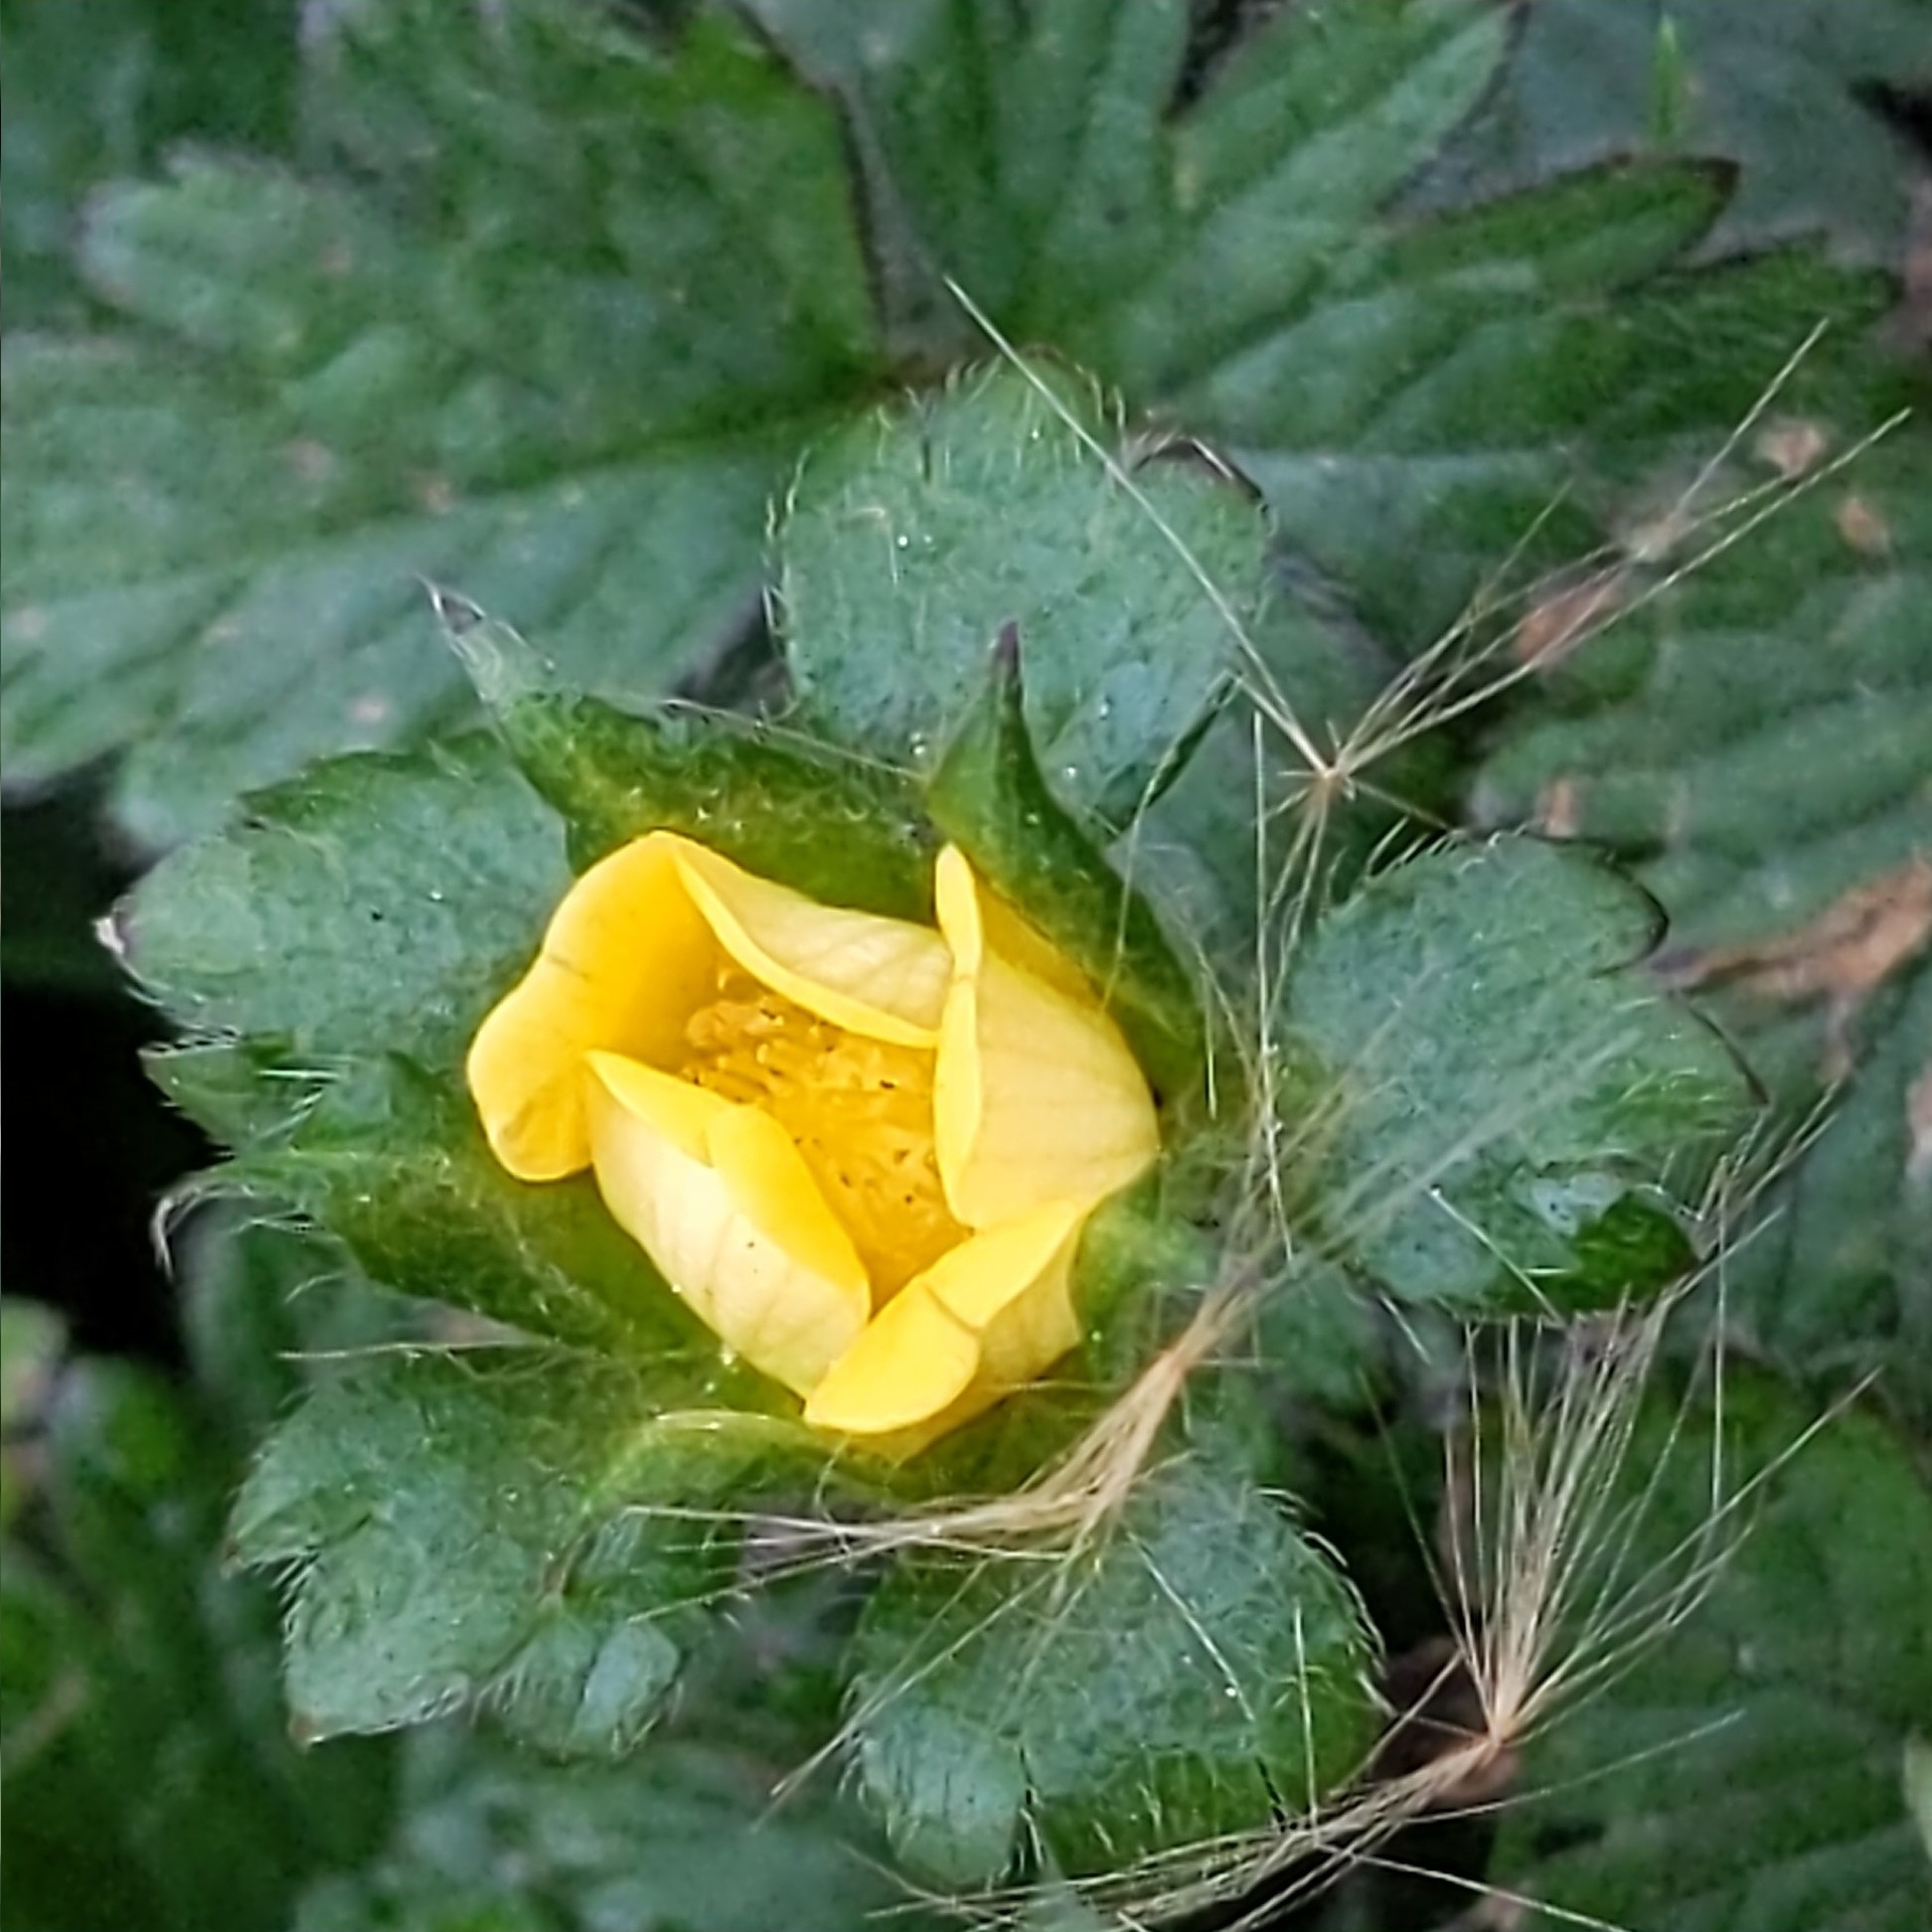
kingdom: Plantae
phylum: Tracheophyta
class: Magnoliopsida
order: Rosales
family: Rosaceae
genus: Potentilla
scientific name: Potentilla indica
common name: Yellow-flowered strawberry
